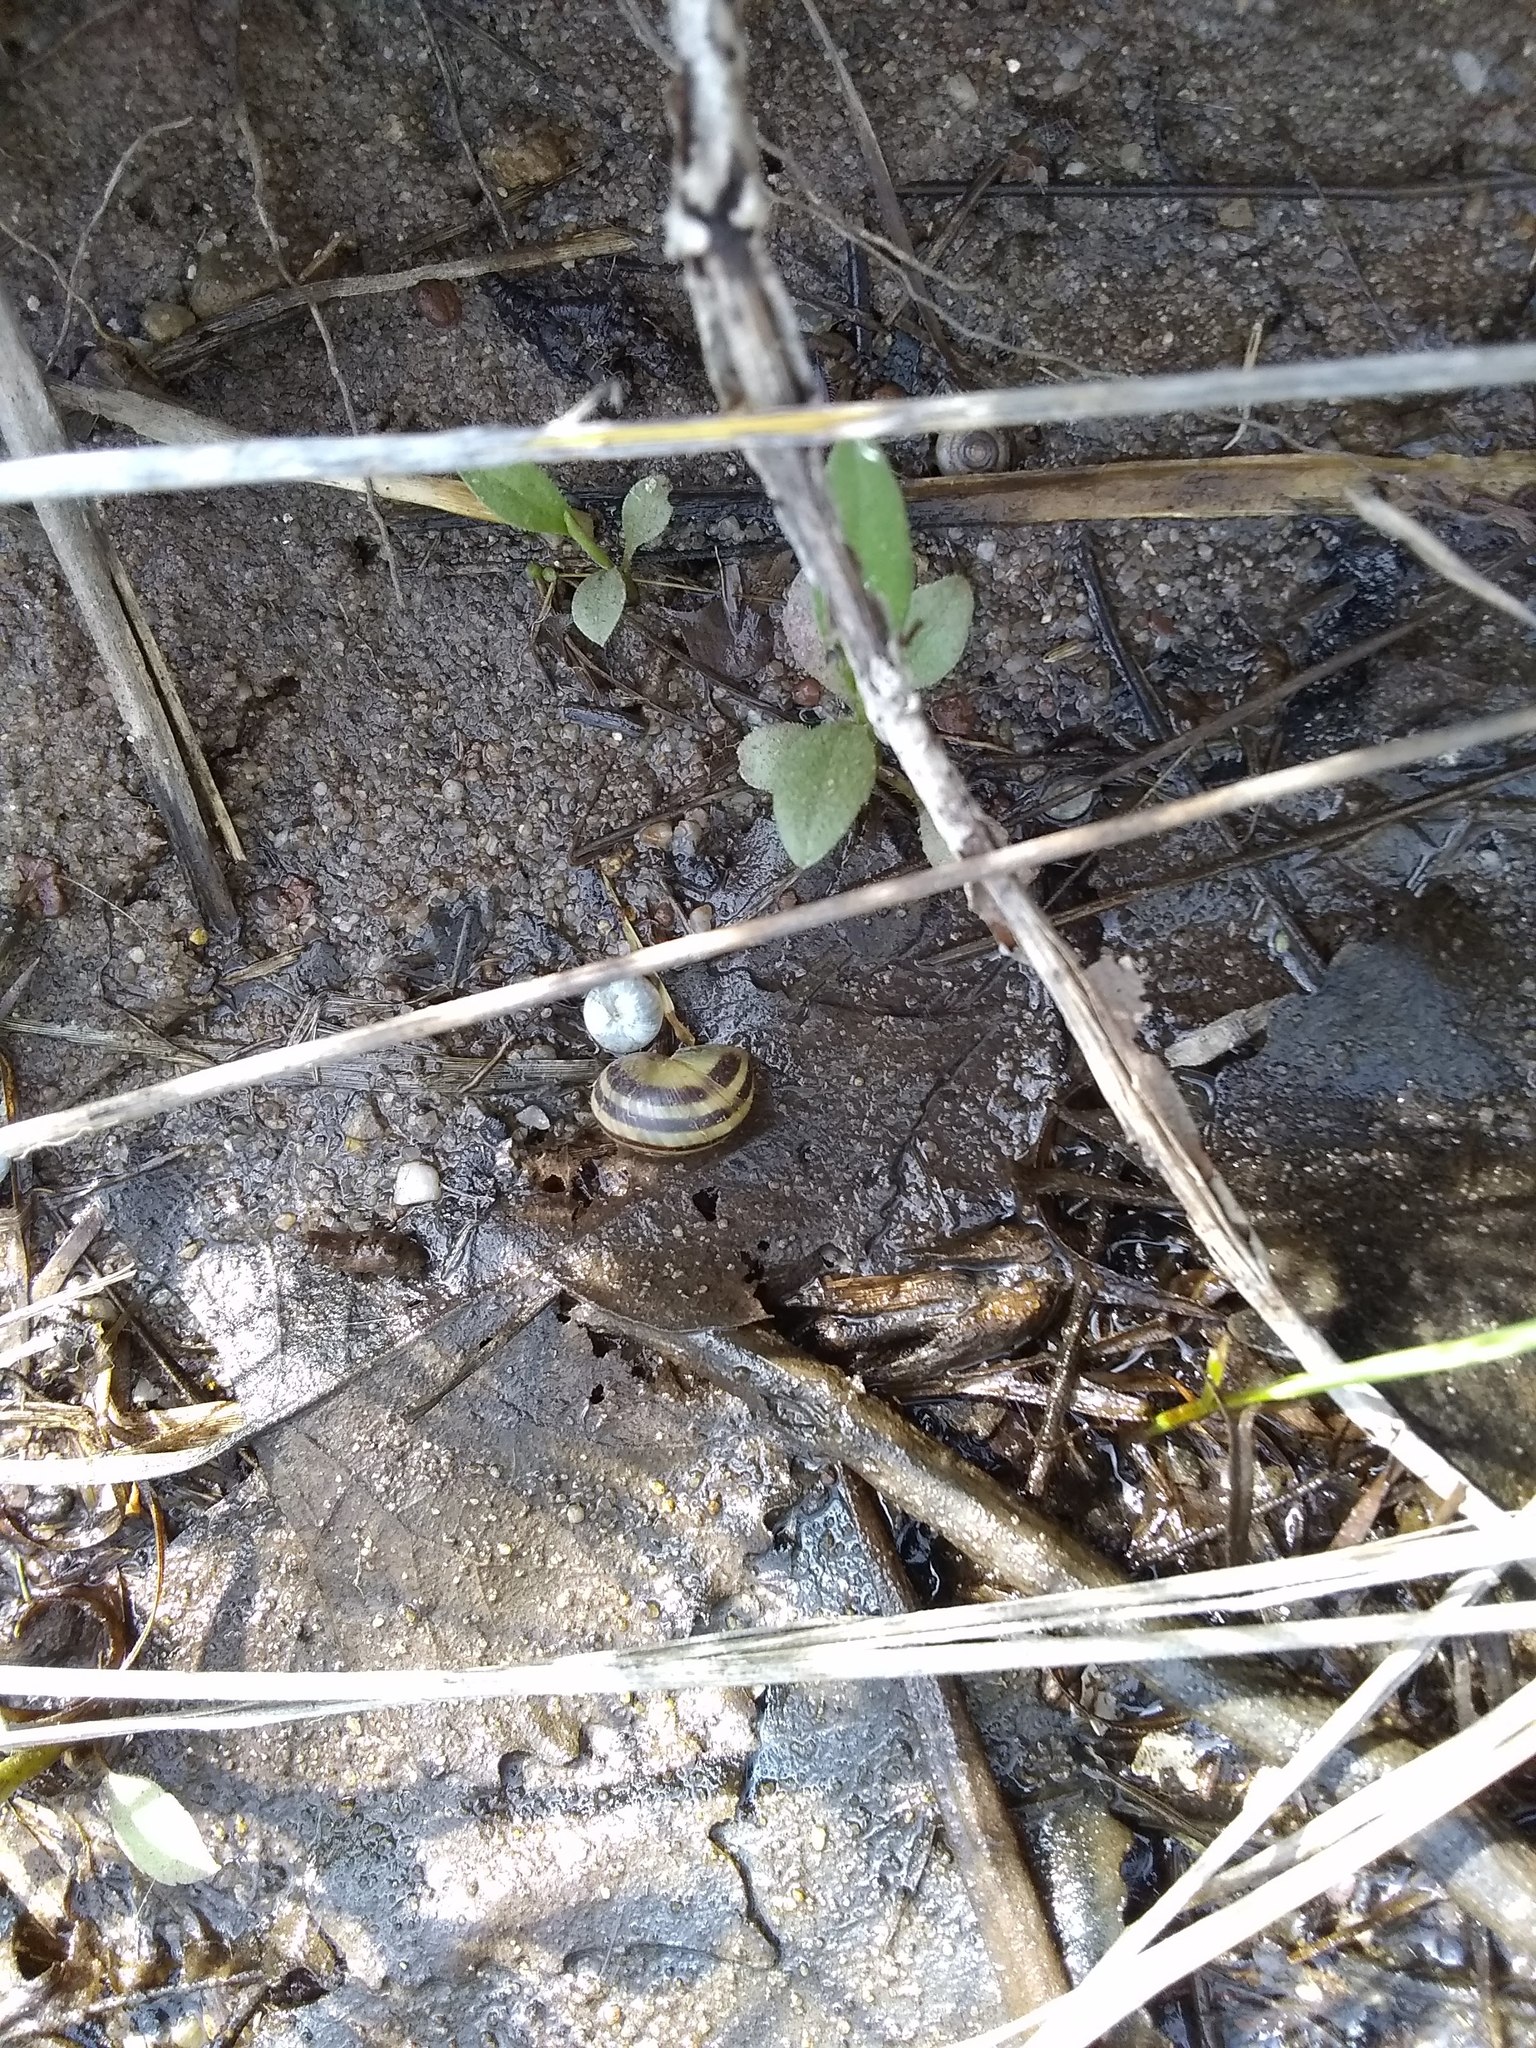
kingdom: Animalia
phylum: Mollusca
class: Gastropoda
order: Stylommatophora
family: Helicidae
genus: Cepaea
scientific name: Cepaea nemoralis
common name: Grovesnail
